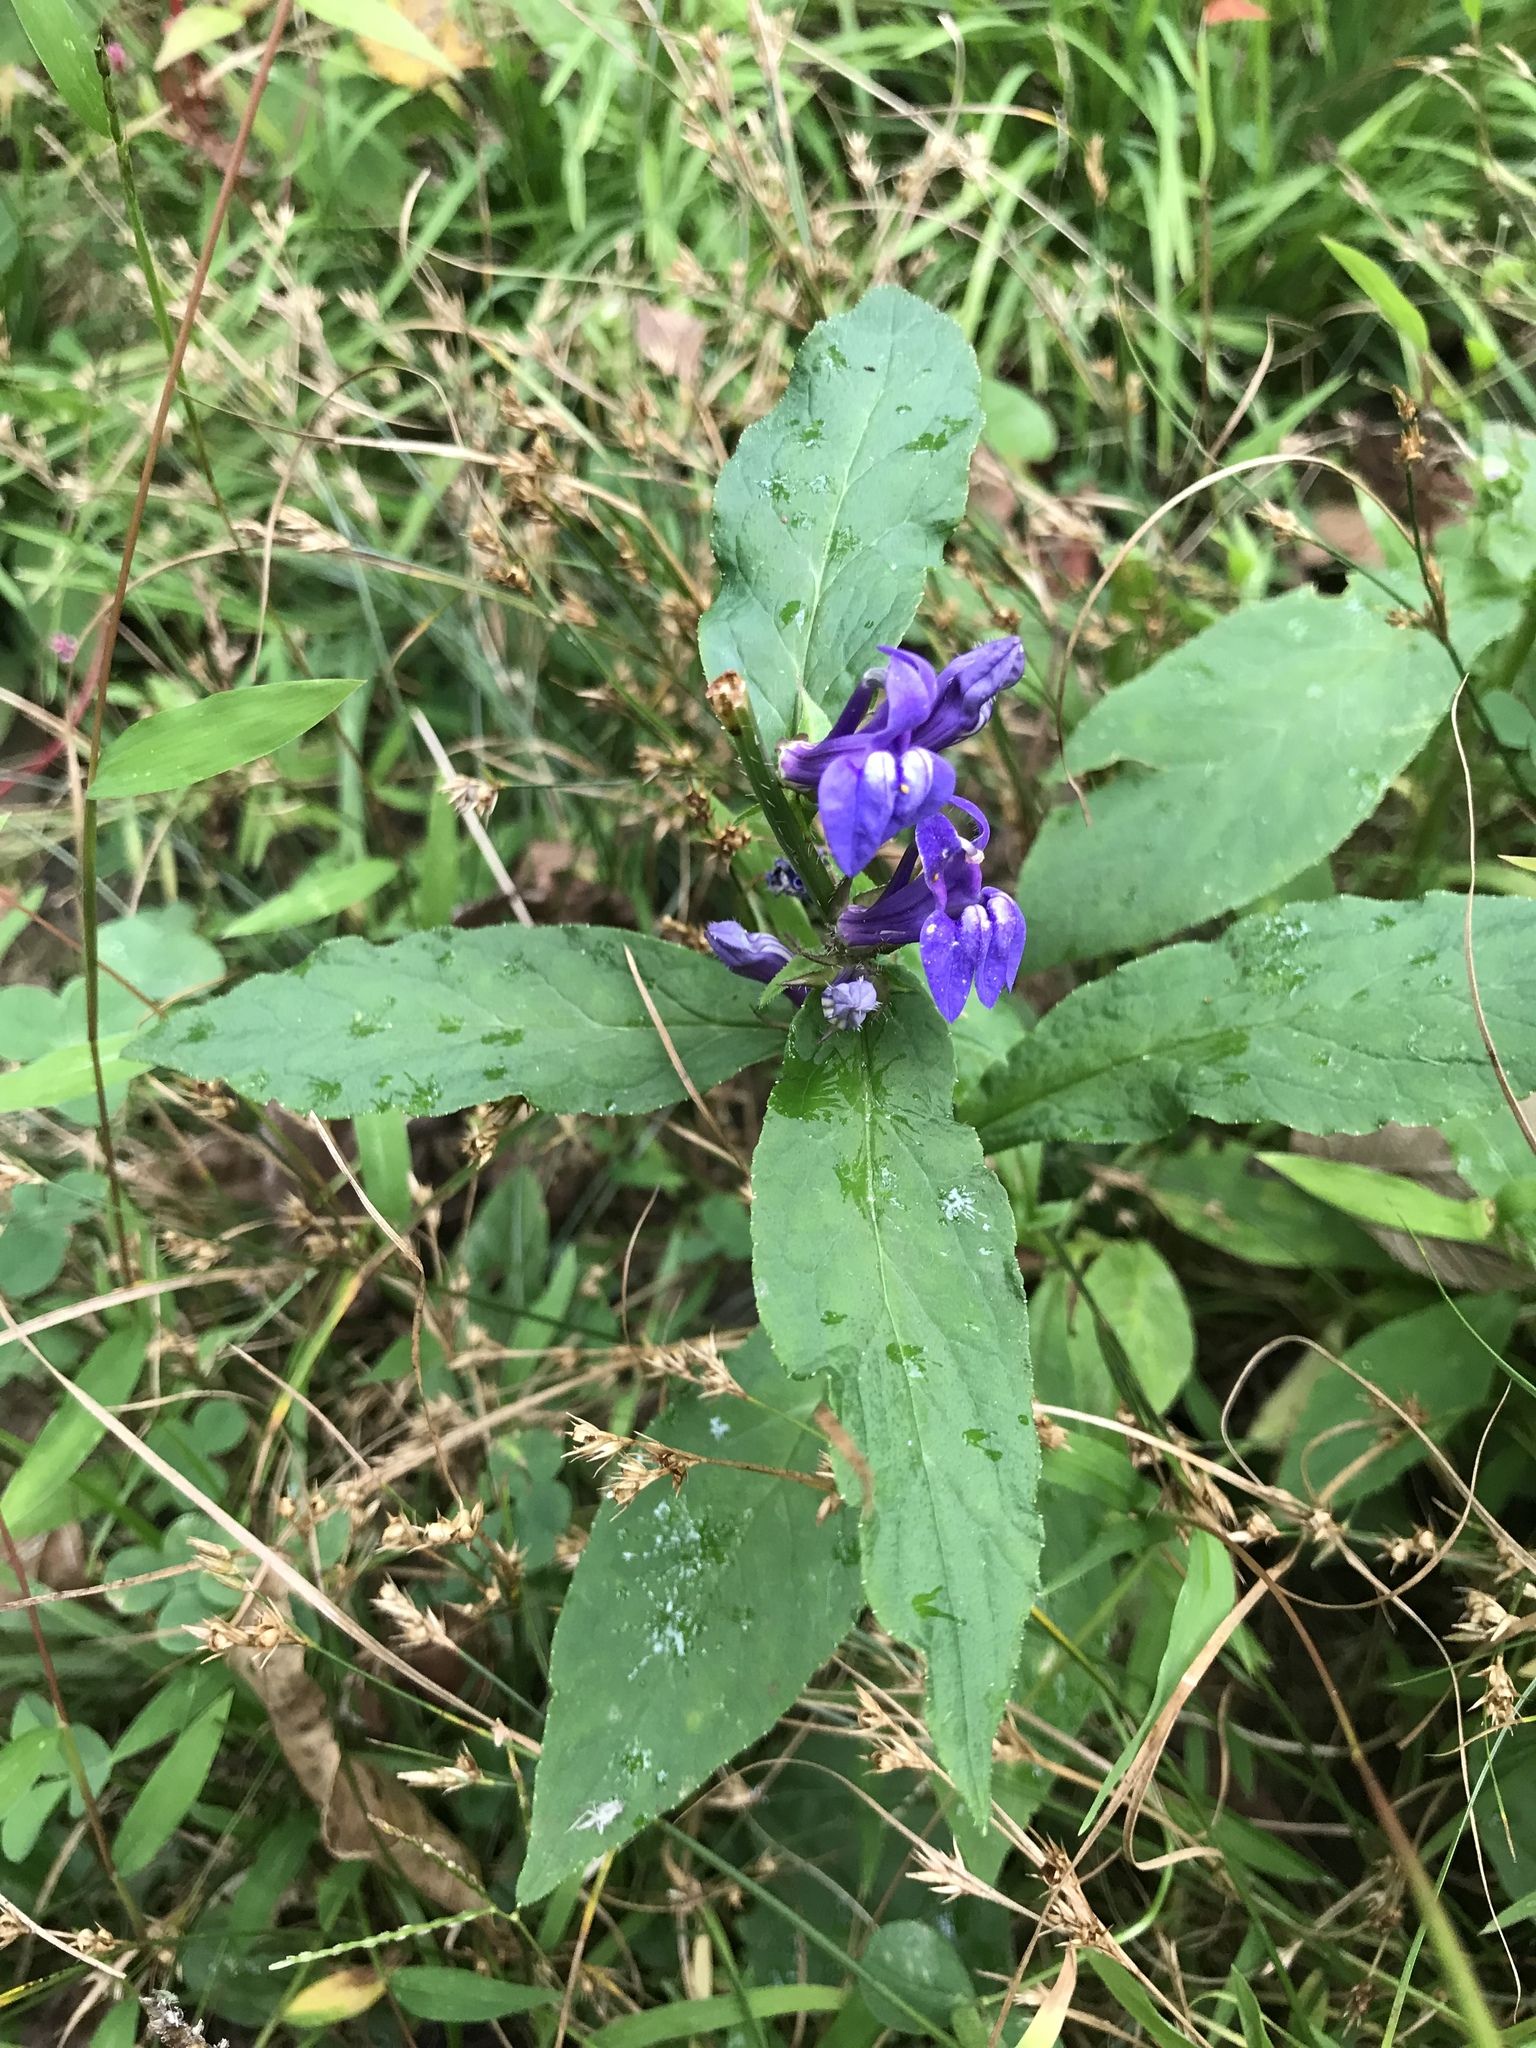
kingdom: Plantae
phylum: Tracheophyta
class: Magnoliopsida
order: Asterales
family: Campanulaceae
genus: Lobelia
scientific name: Lobelia siphilitica
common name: Great lobelia
